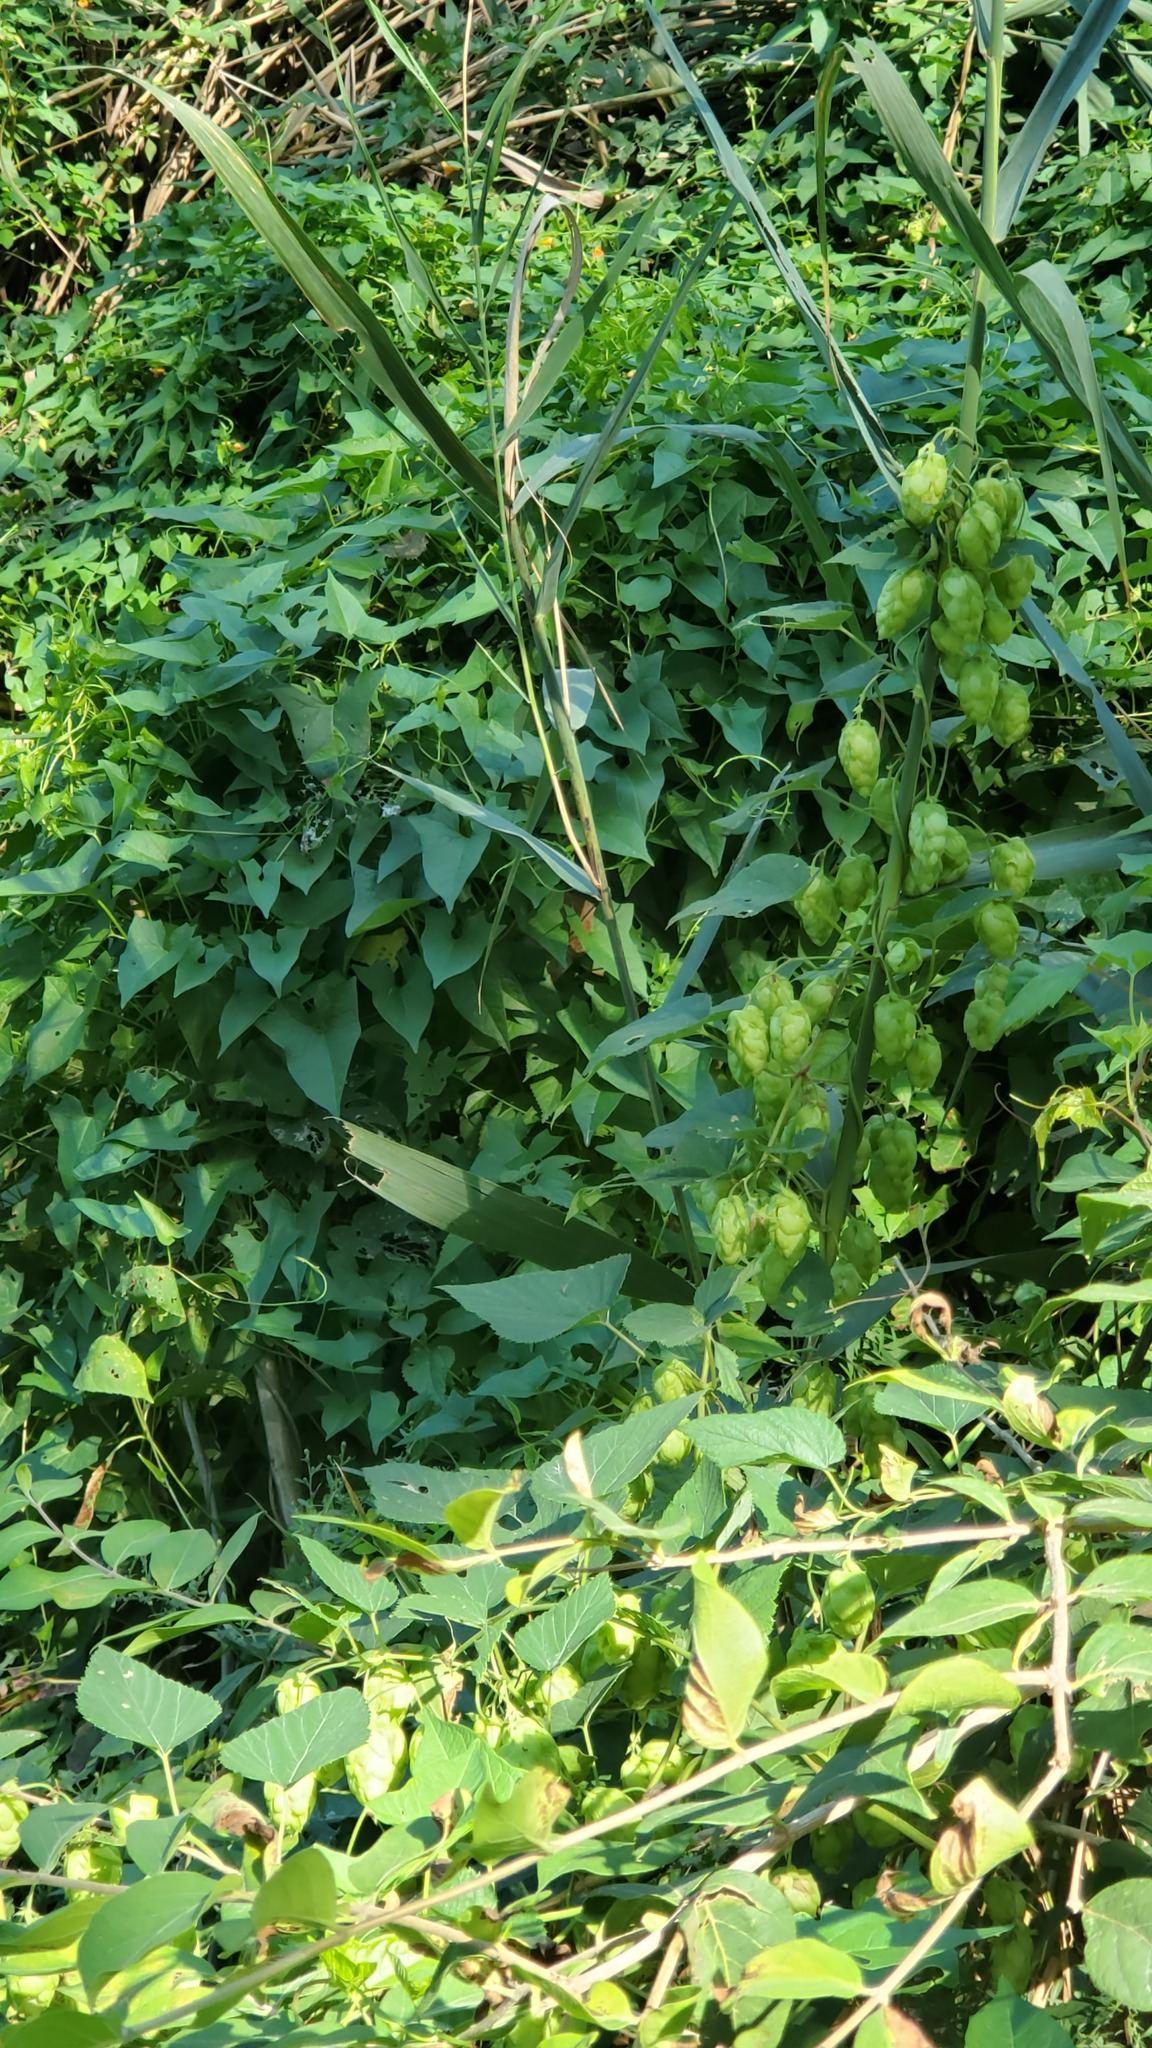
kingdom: Plantae
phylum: Tracheophyta
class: Magnoliopsida
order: Rosales
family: Cannabaceae
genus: Humulus
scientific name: Humulus lupulus
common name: Hop
